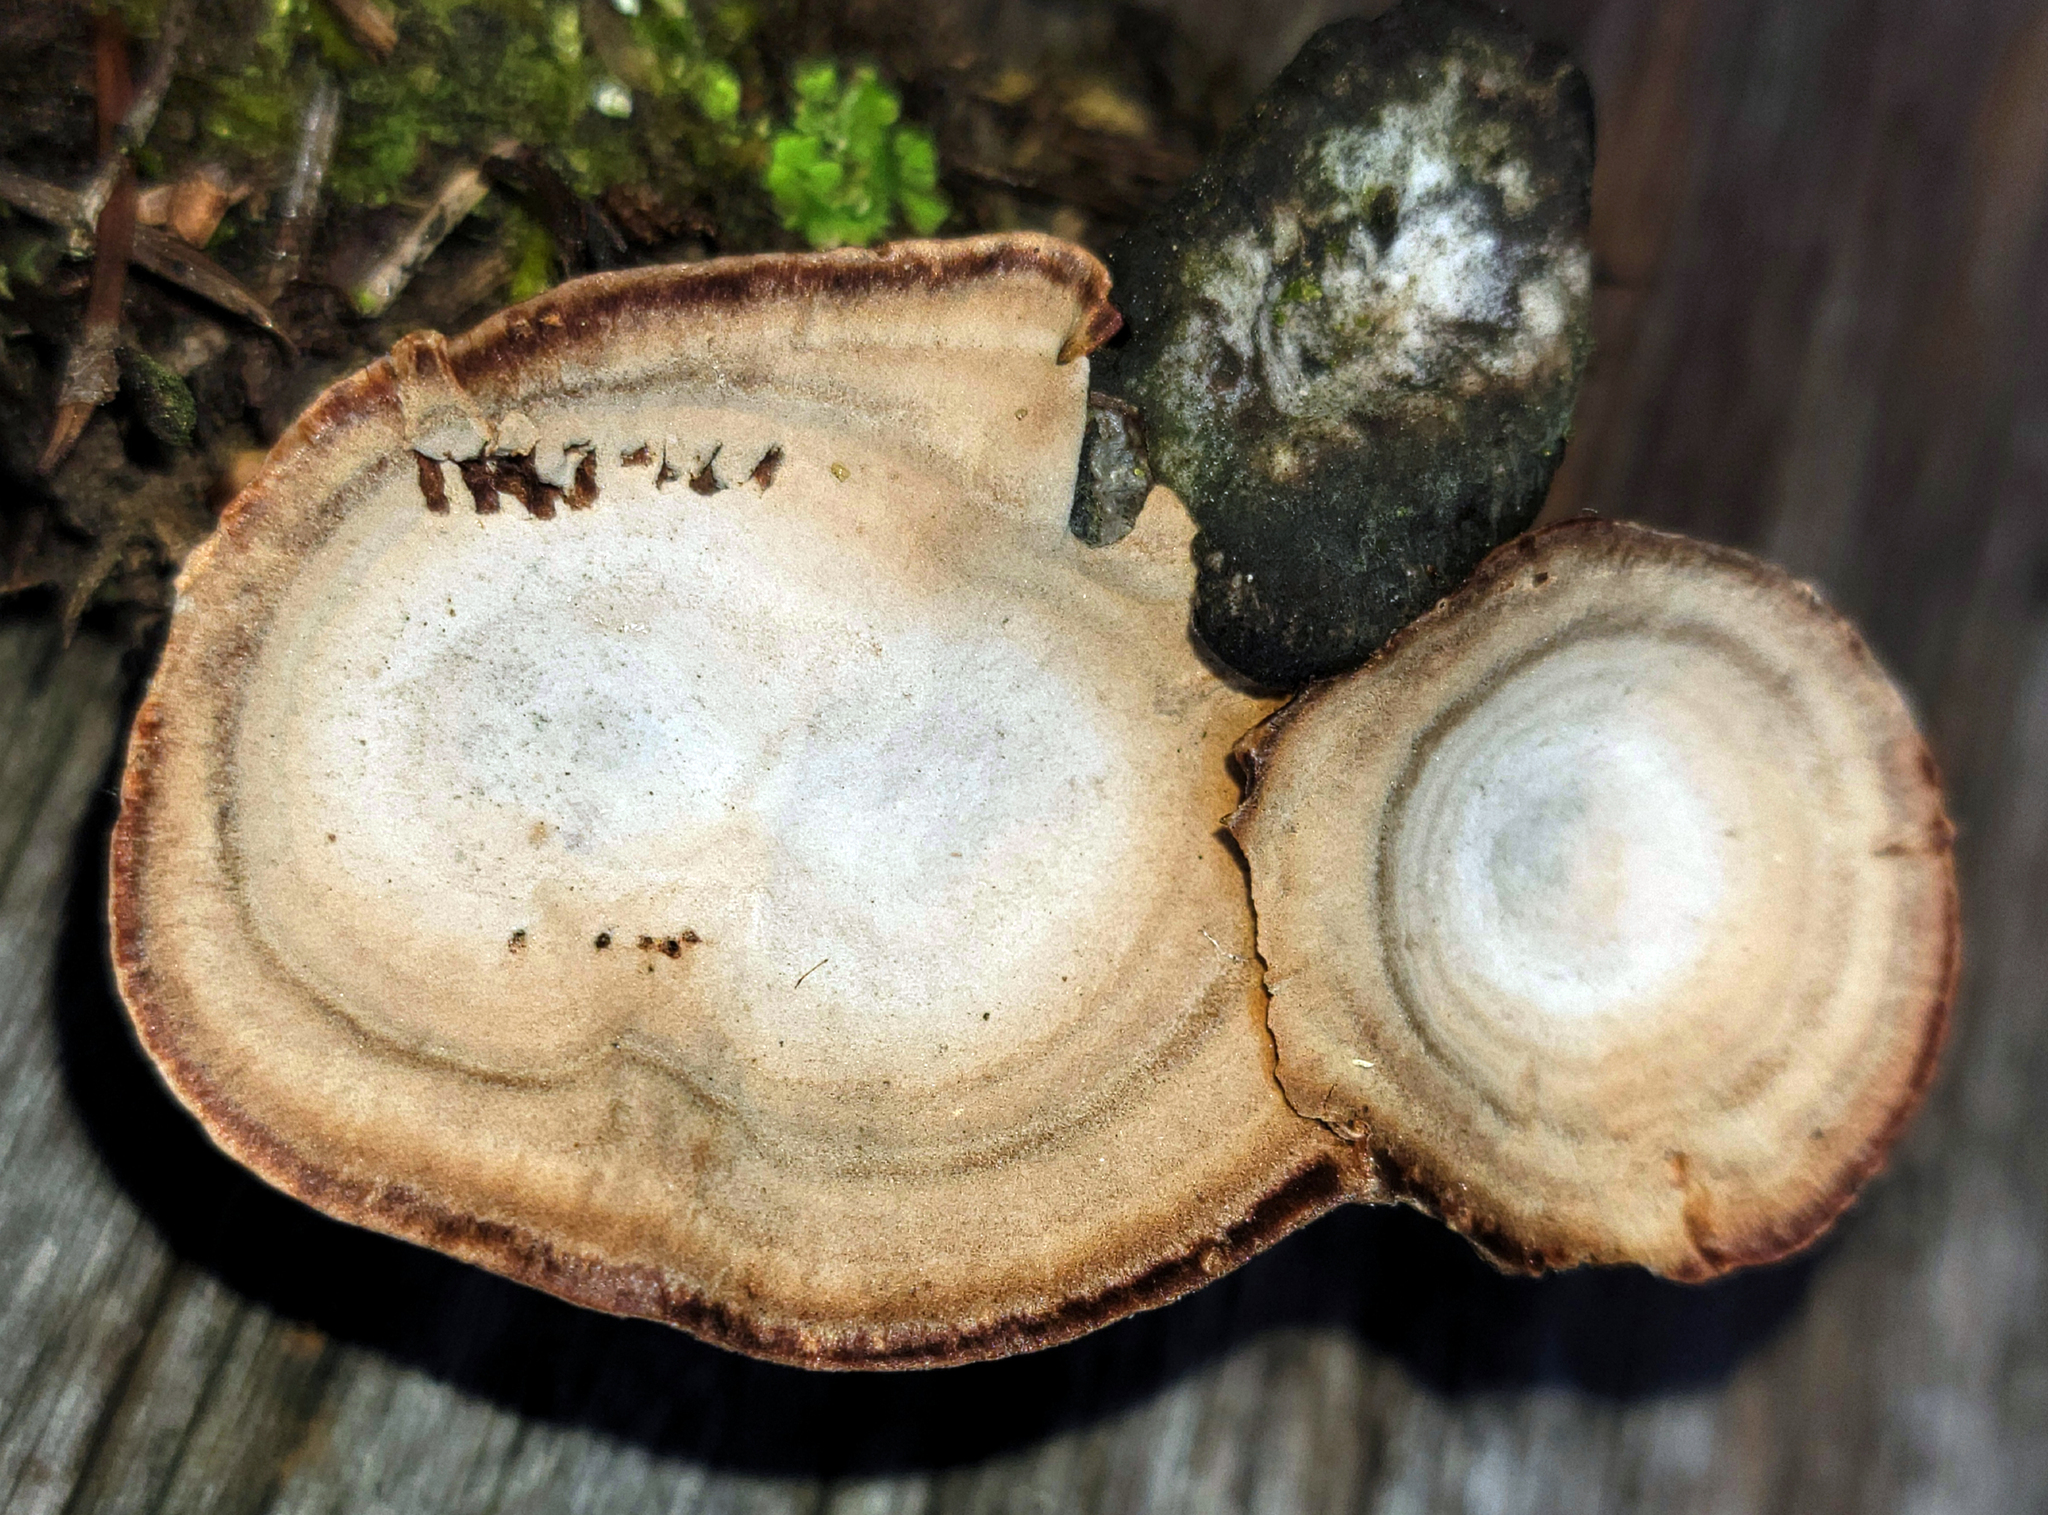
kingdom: Fungi
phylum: Basidiomycota
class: Agaricomycetes
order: Hymenochaetales
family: Hymenochaetaceae
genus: Coltricia
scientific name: Coltricia perennis
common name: Tiger's eye
